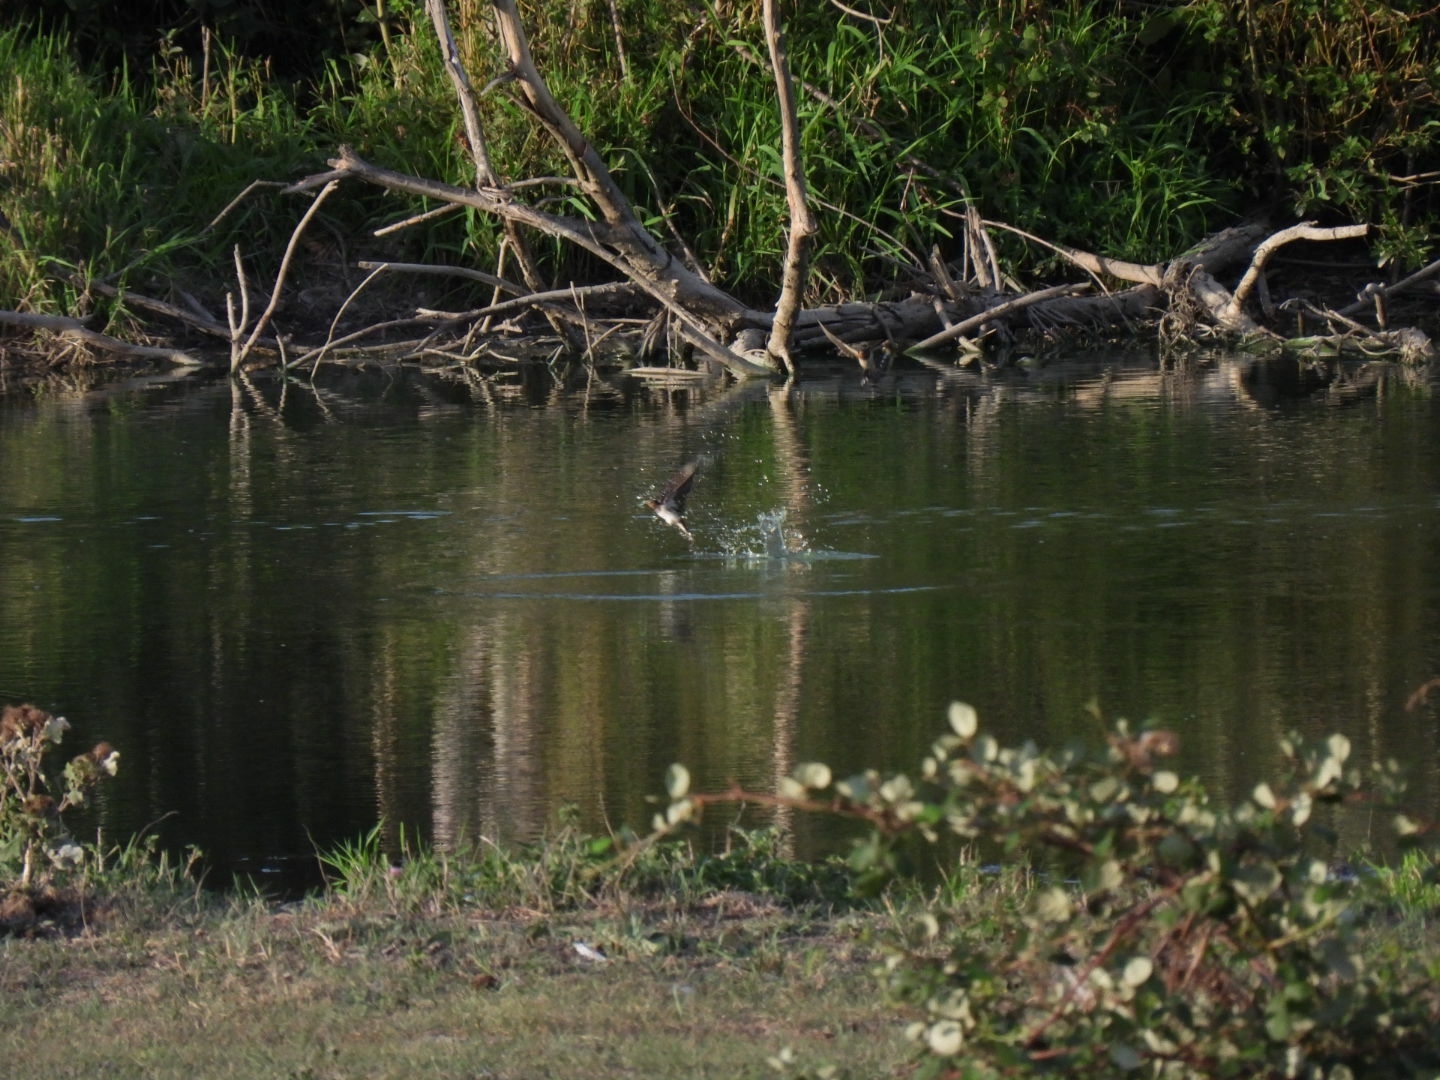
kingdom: Animalia
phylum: Chordata
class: Aves
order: Passeriformes
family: Hirundinidae
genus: Hirundo
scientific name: Hirundo rustica
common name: Barn swallow
